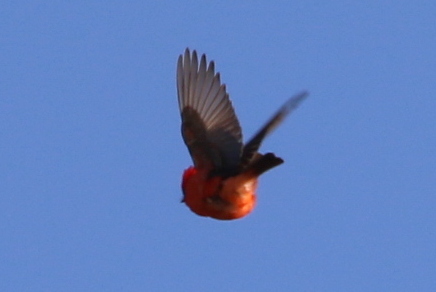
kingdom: Animalia
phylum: Chordata
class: Aves
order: Passeriformes
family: Tyrannidae
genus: Pyrocephalus
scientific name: Pyrocephalus rubinus
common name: Vermilion flycatcher
